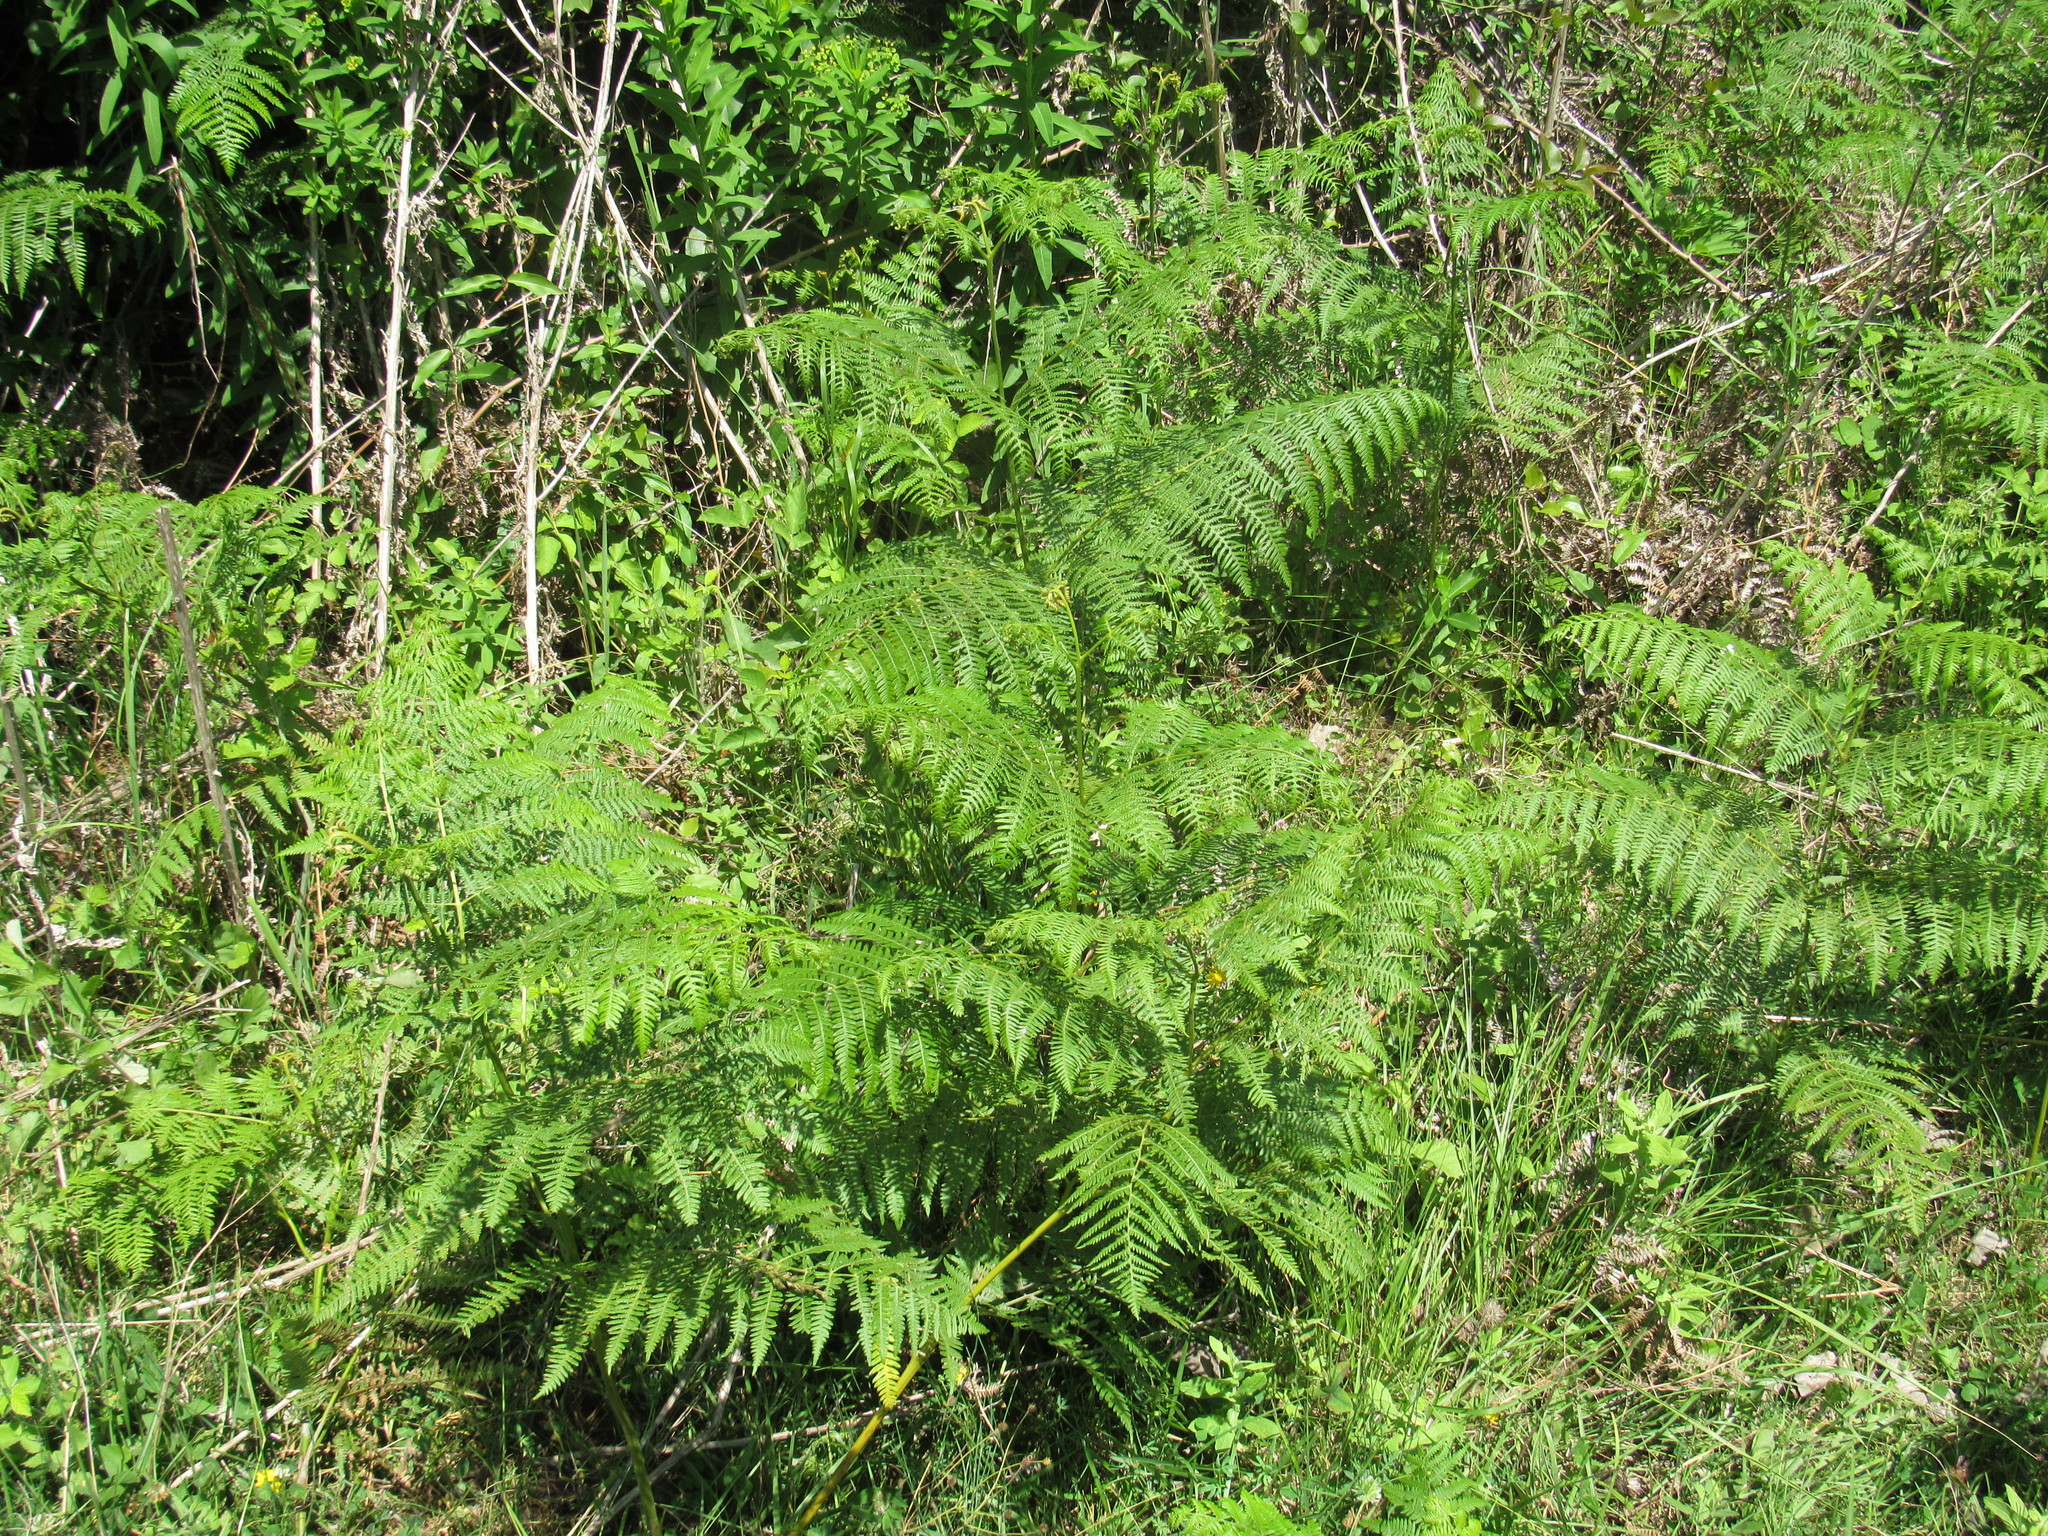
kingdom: Plantae
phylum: Tracheophyta
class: Polypodiopsida
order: Polypodiales
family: Dennstaedtiaceae
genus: Pteridium
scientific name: Pteridium tauricum
